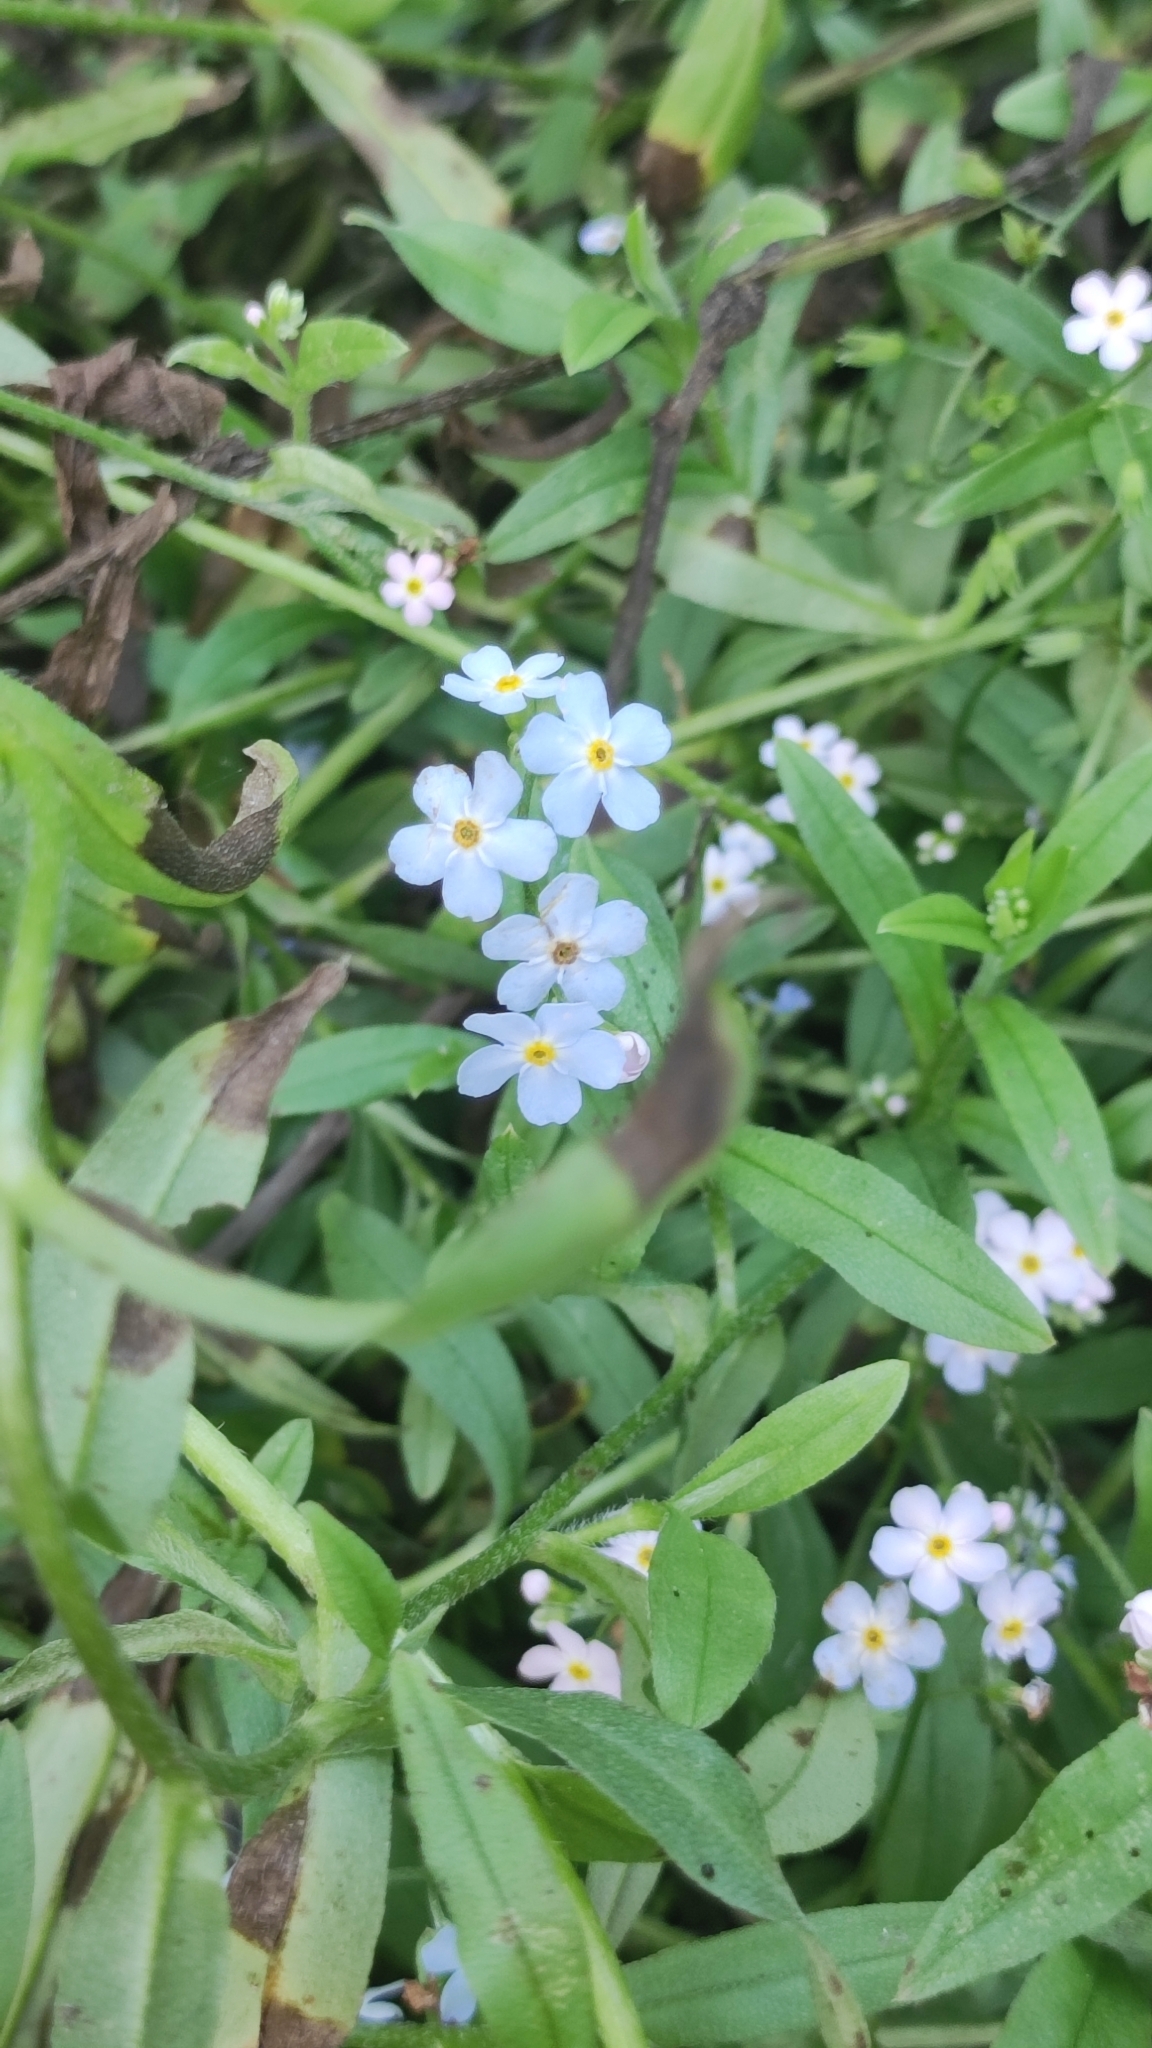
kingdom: Plantae
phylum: Tracheophyta
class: Magnoliopsida
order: Boraginales
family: Boraginaceae
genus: Myosotis
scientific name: Myosotis scorpioides
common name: Water forget-me-not
